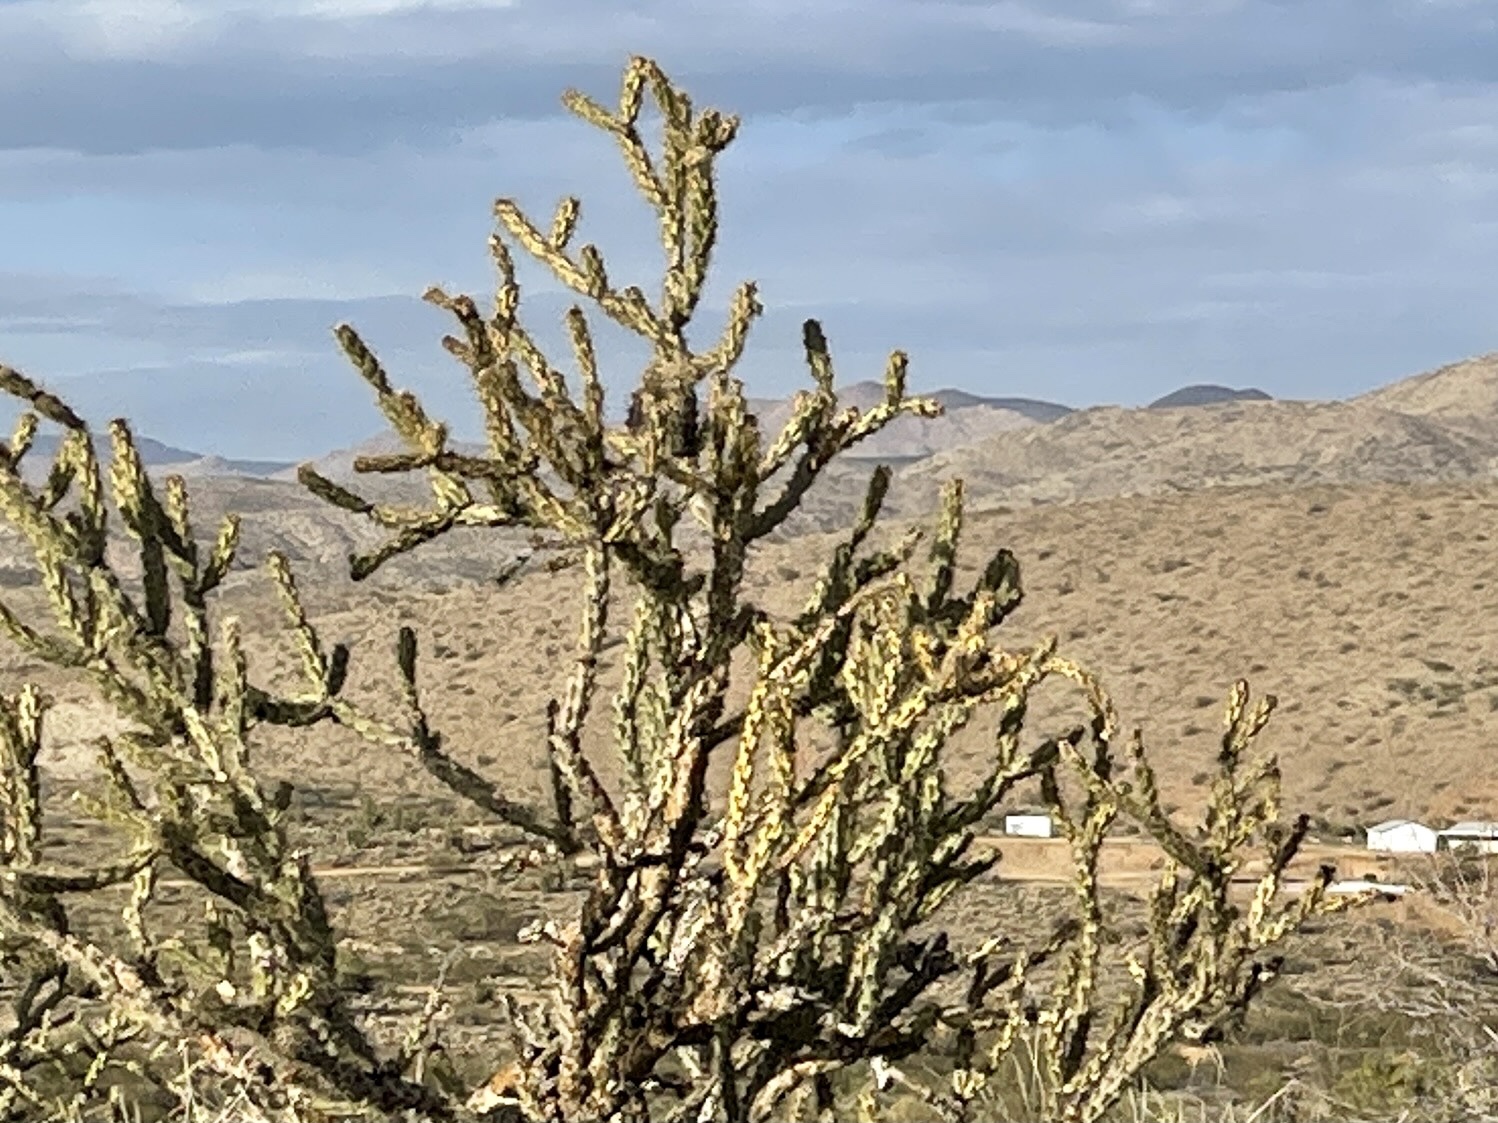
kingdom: Plantae
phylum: Tracheophyta
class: Magnoliopsida
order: Caryophyllales
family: Cactaceae
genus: Cylindropuntia
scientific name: Cylindropuntia acanthocarpa
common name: Buckhorn cholla
